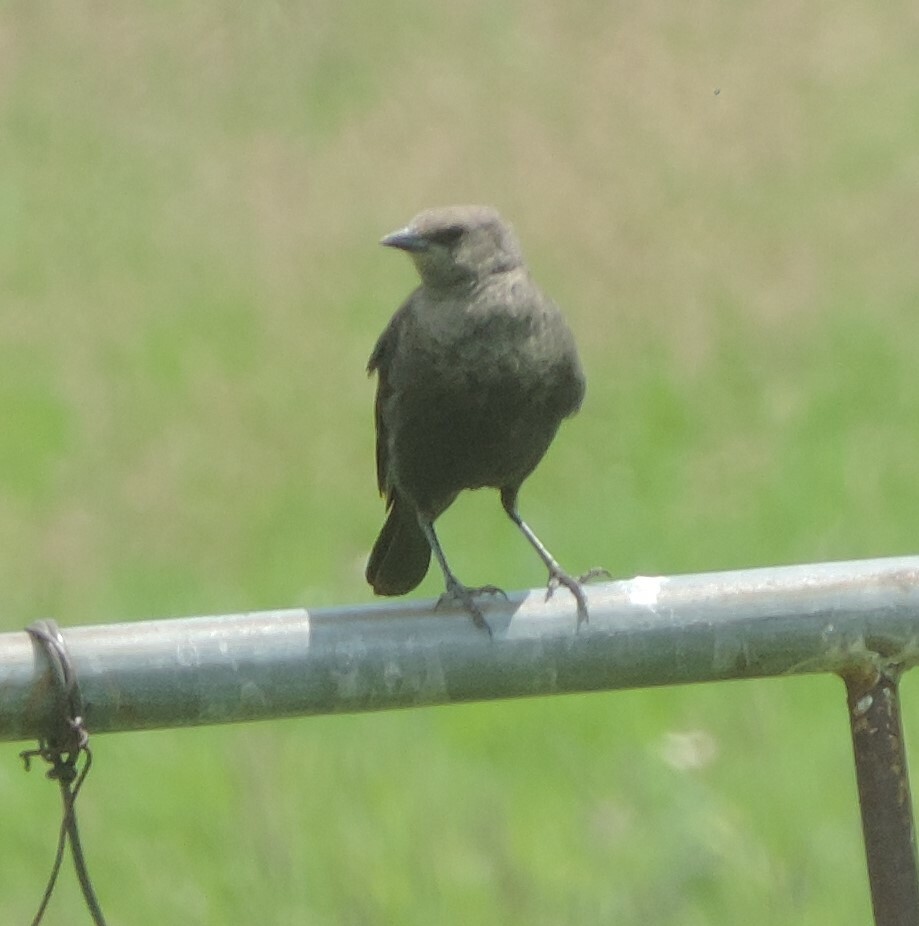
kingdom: Animalia
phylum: Chordata
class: Aves
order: Passeriformes
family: Icteridae
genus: Euphagus
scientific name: Euphagus cyanocephalus
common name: Brewer's blackbird
